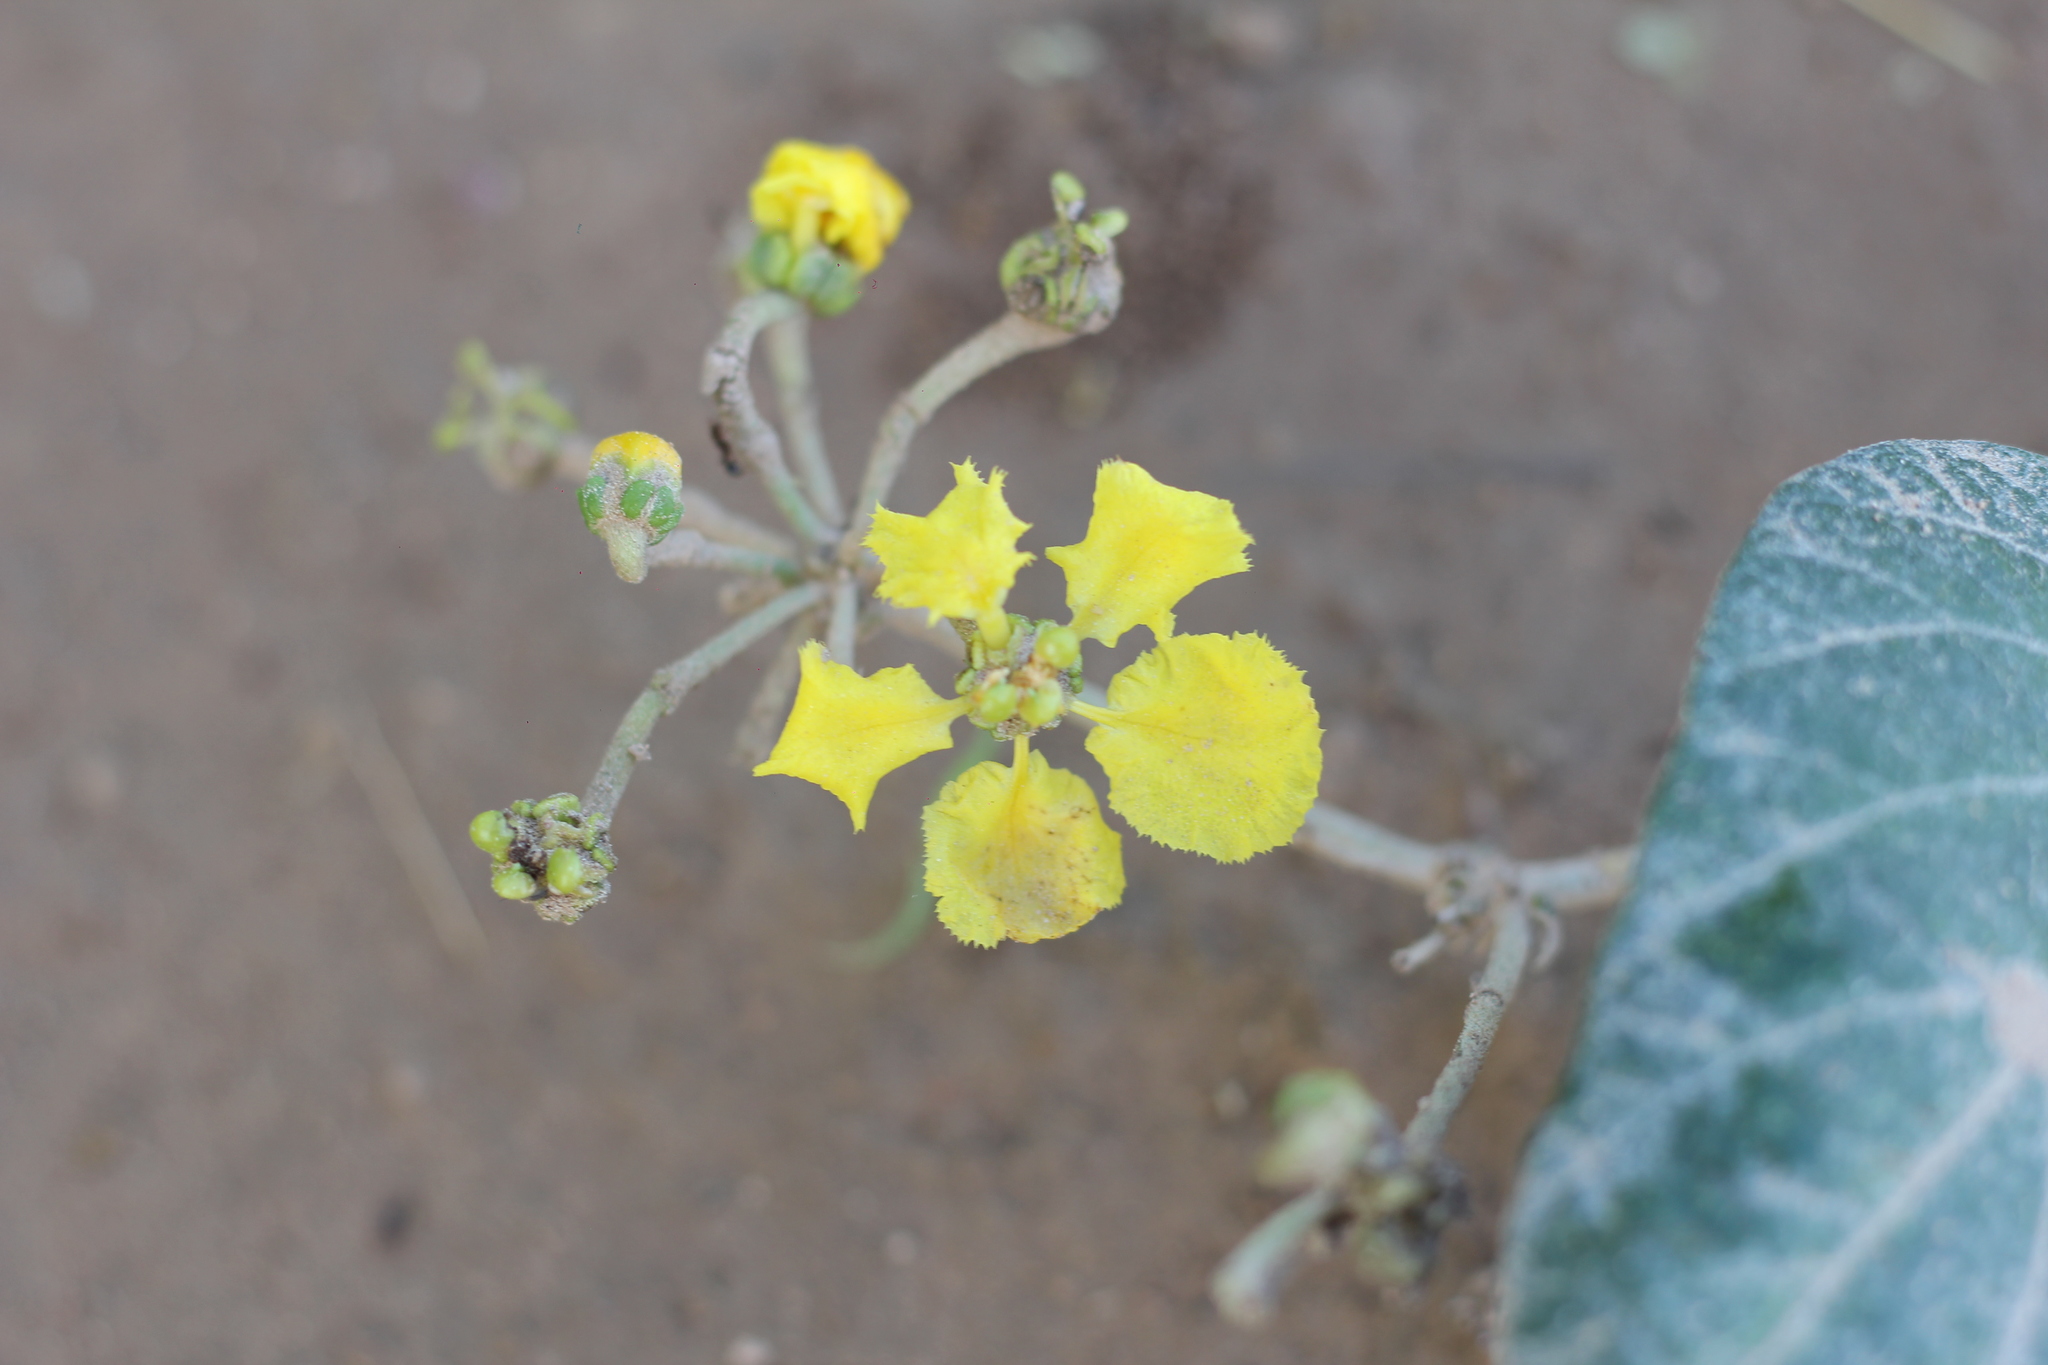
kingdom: Plantae
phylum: Tracheophyta
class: Magnoliopsida
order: Malpighiales
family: Malpighiaceae
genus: Stigmaphyllon
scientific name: Stigmaphyllon bonariense
